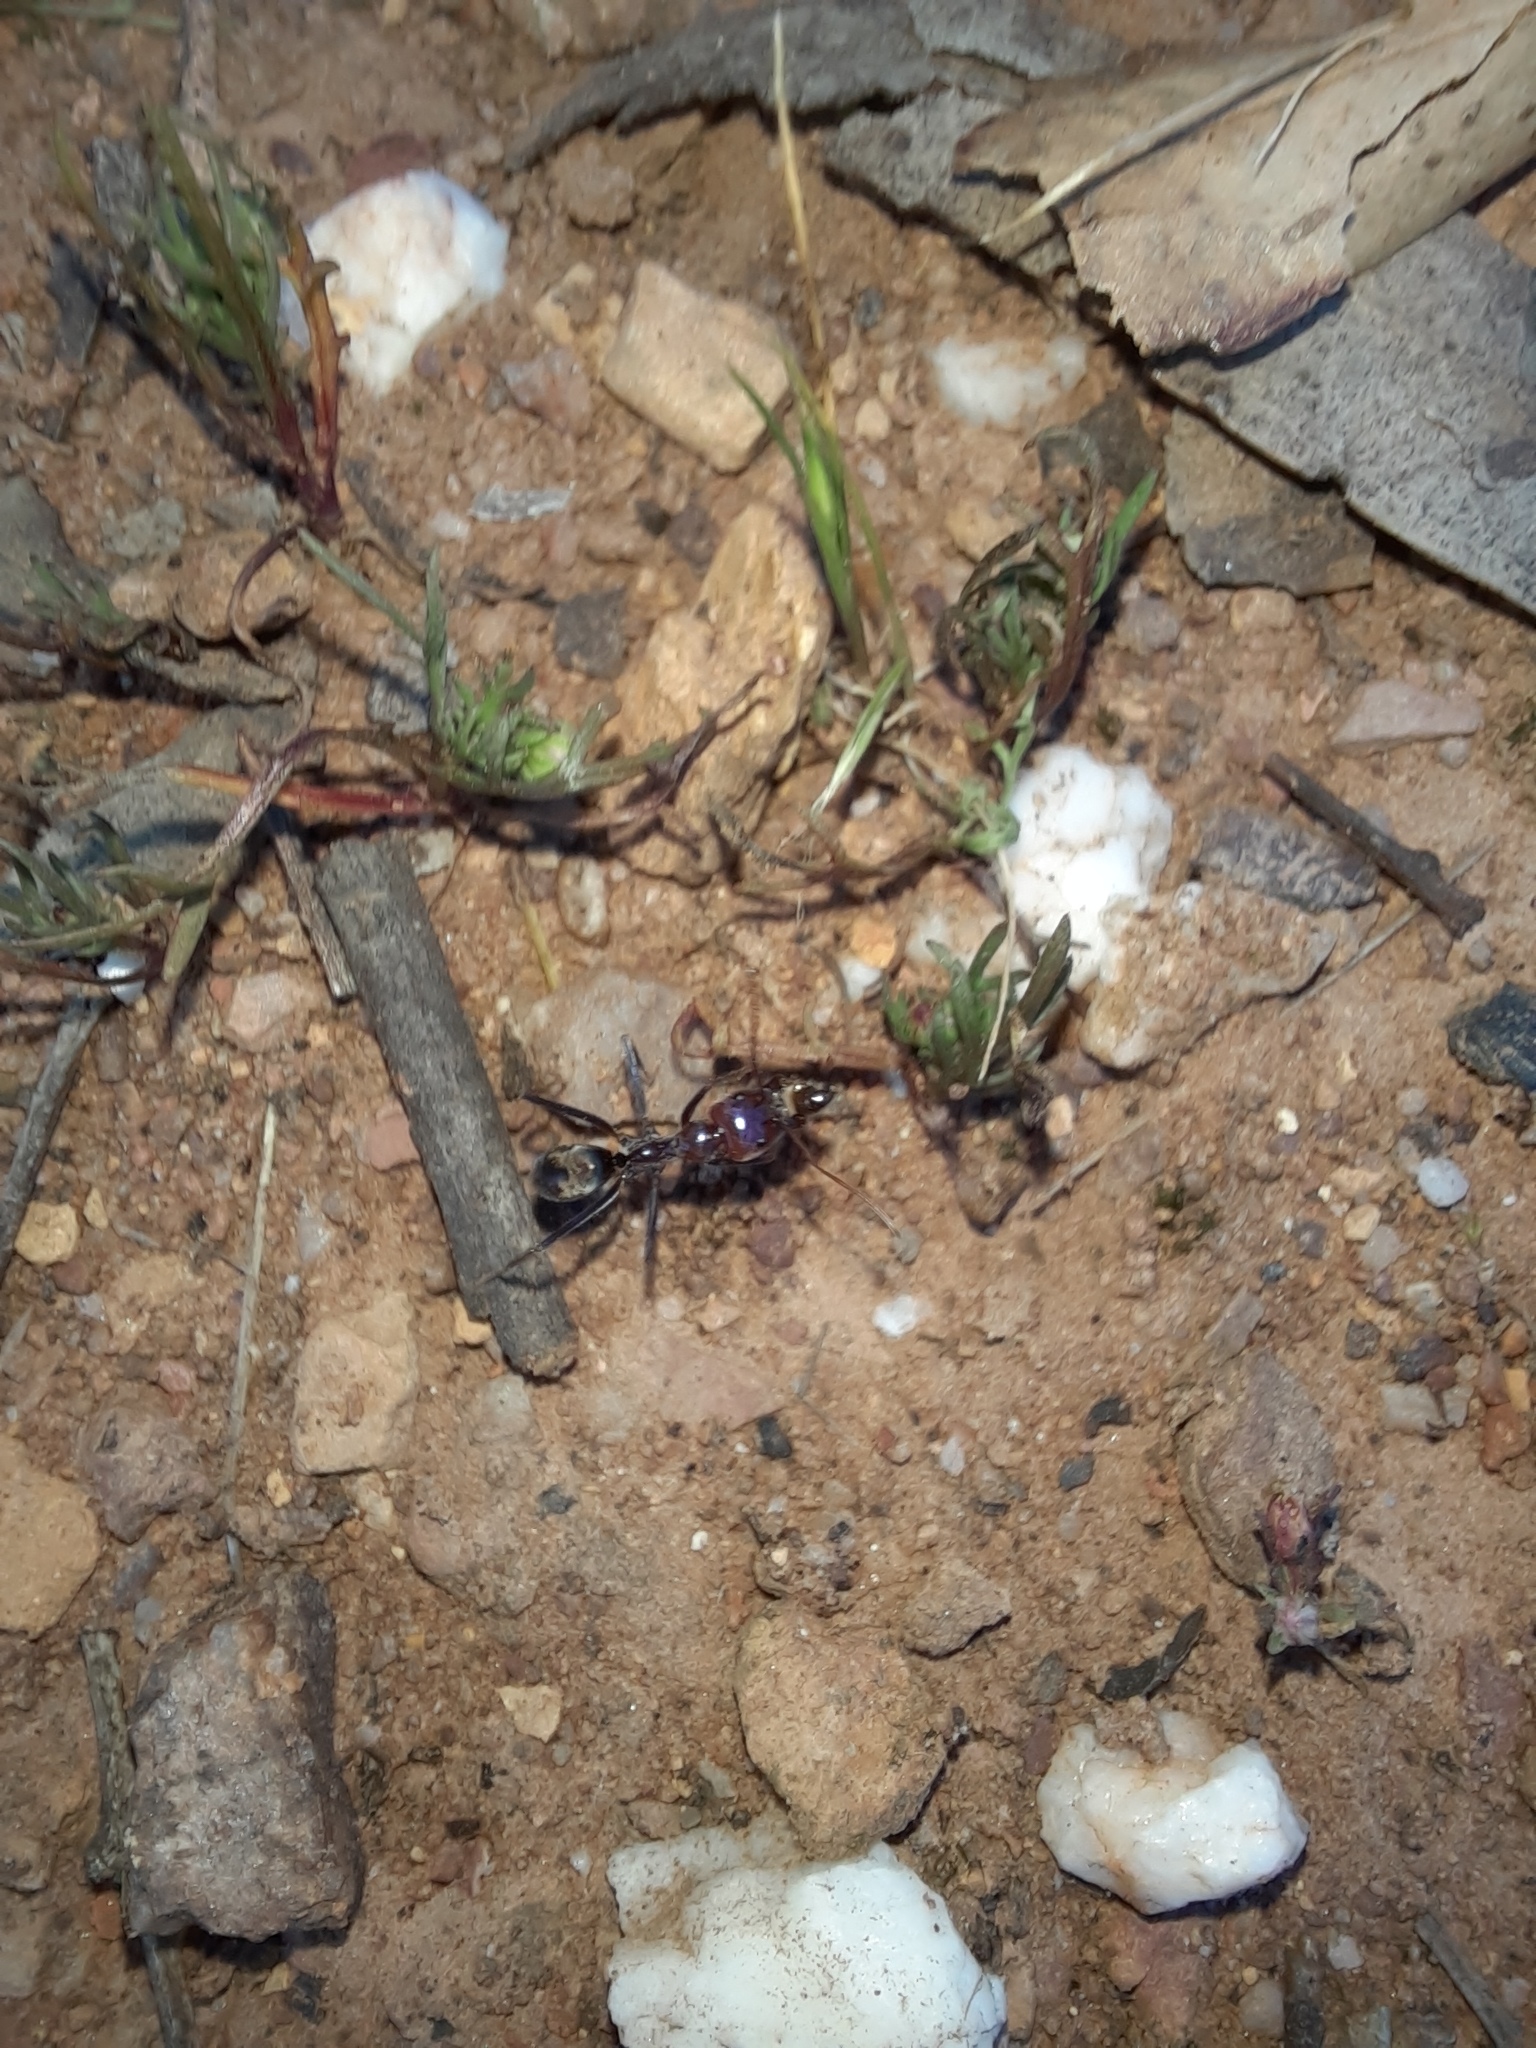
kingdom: Animalia
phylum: Arthropoda
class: Insecta
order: Hymenoptera
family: Formicidae
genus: Iridomyrmex
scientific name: Iridomyrmex purpureus
